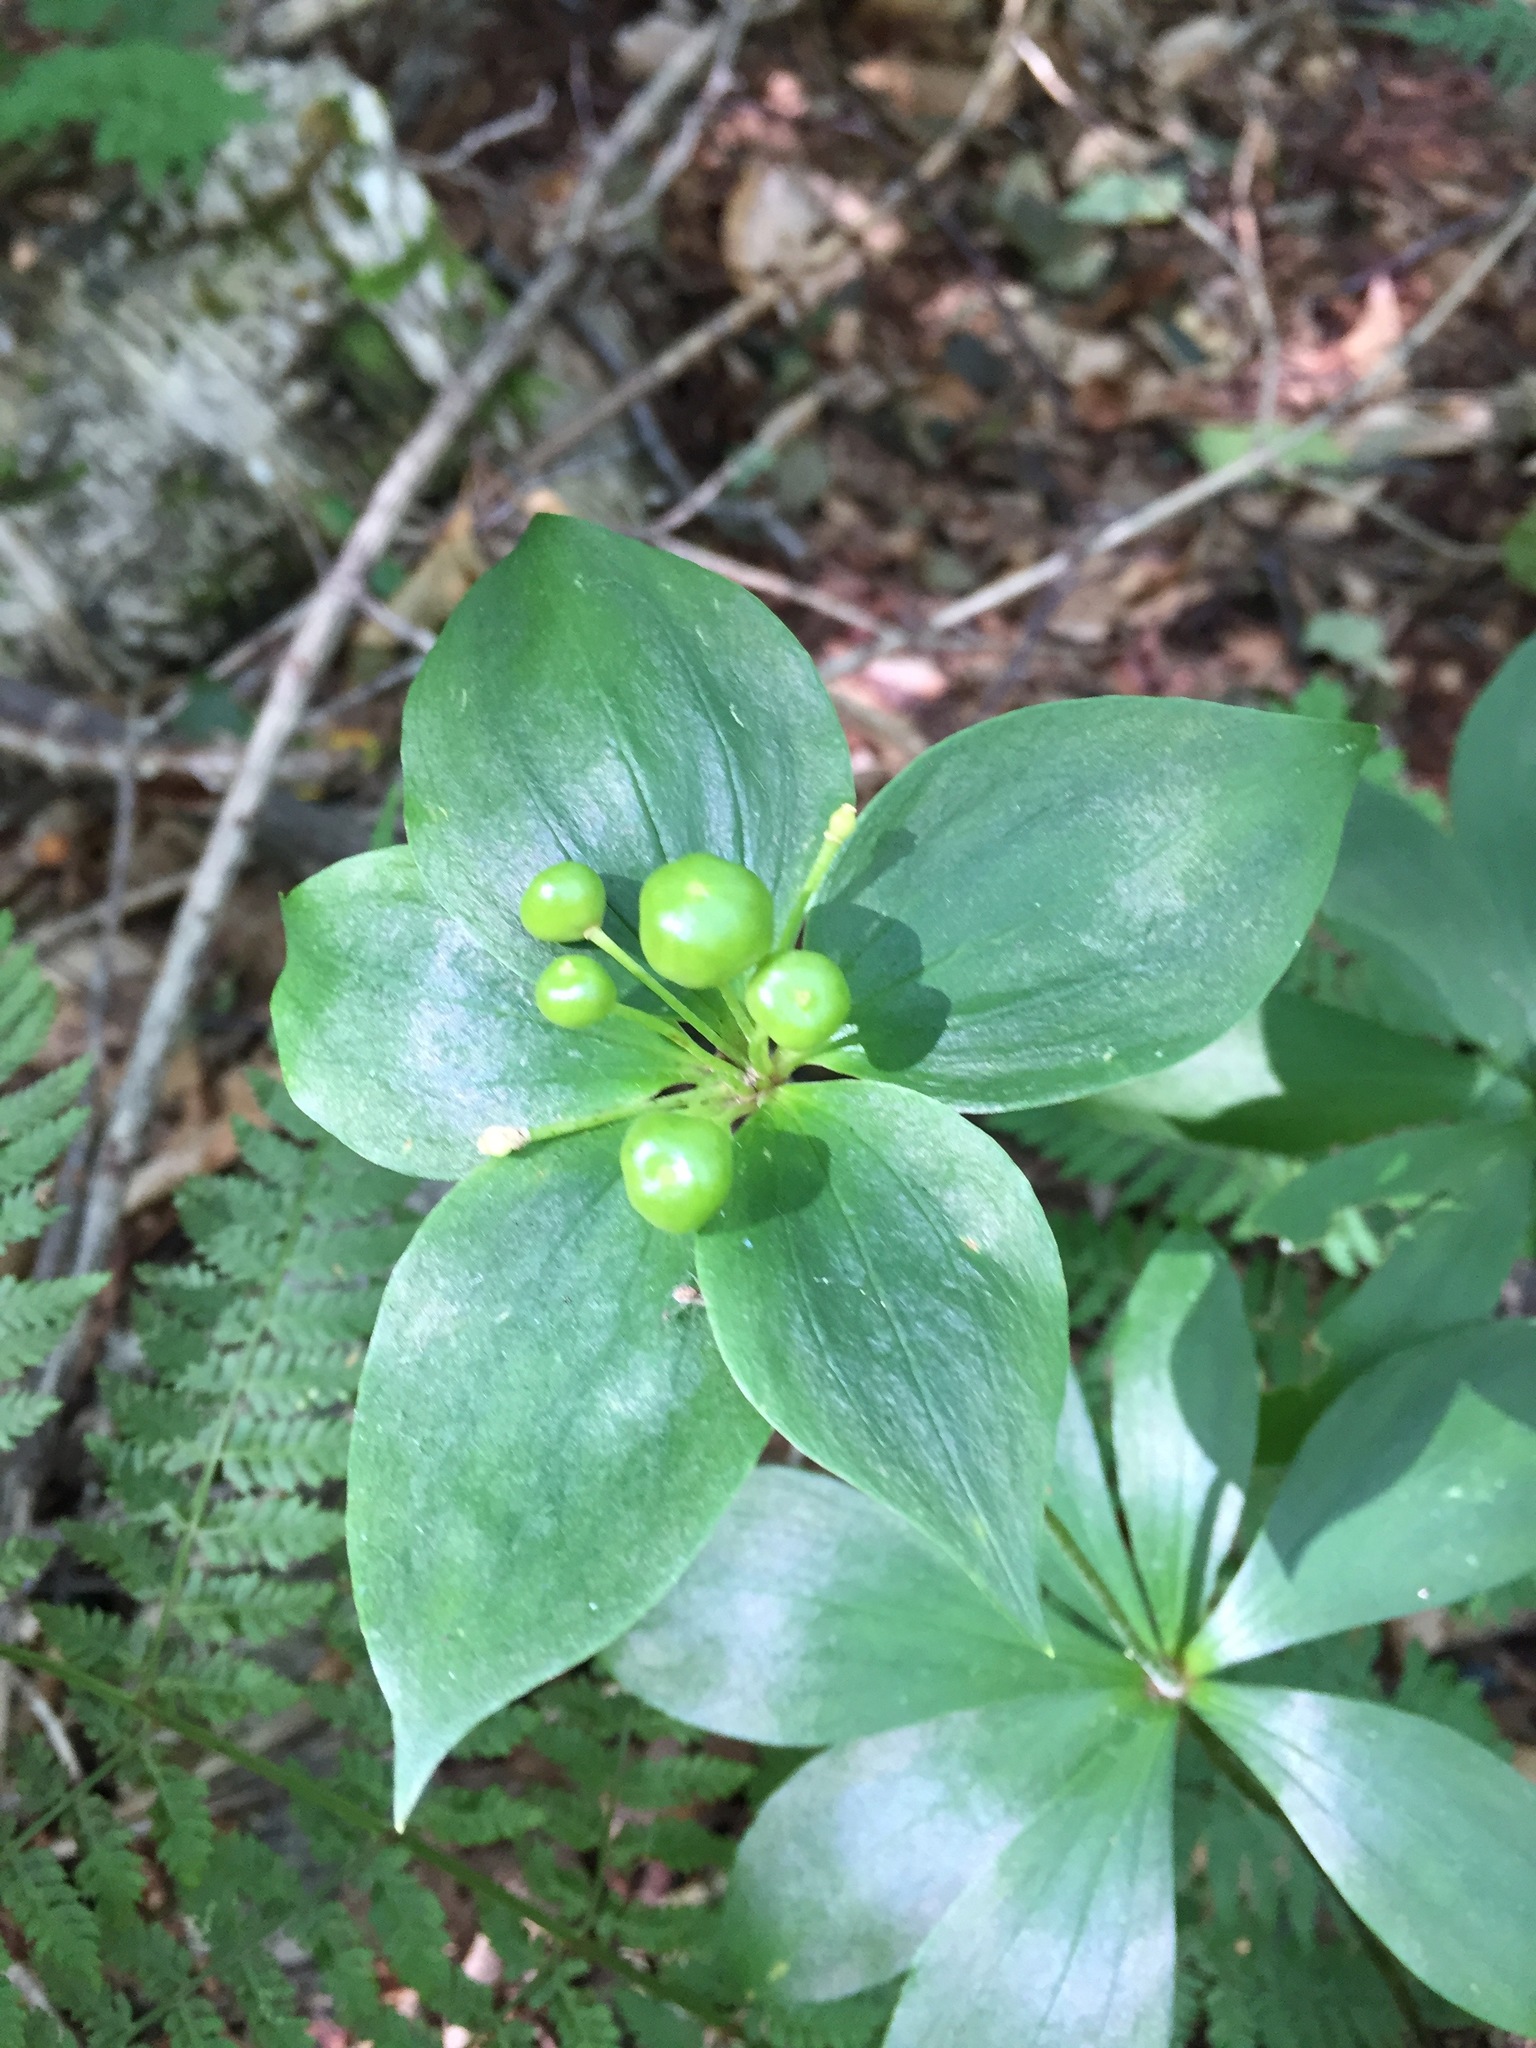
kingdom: Plantae
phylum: Tracheophyta
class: Liliopsida
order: Liliales
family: Liliaceae
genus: Medeola
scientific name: Medeola virginiana
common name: Indian cucumber-root
